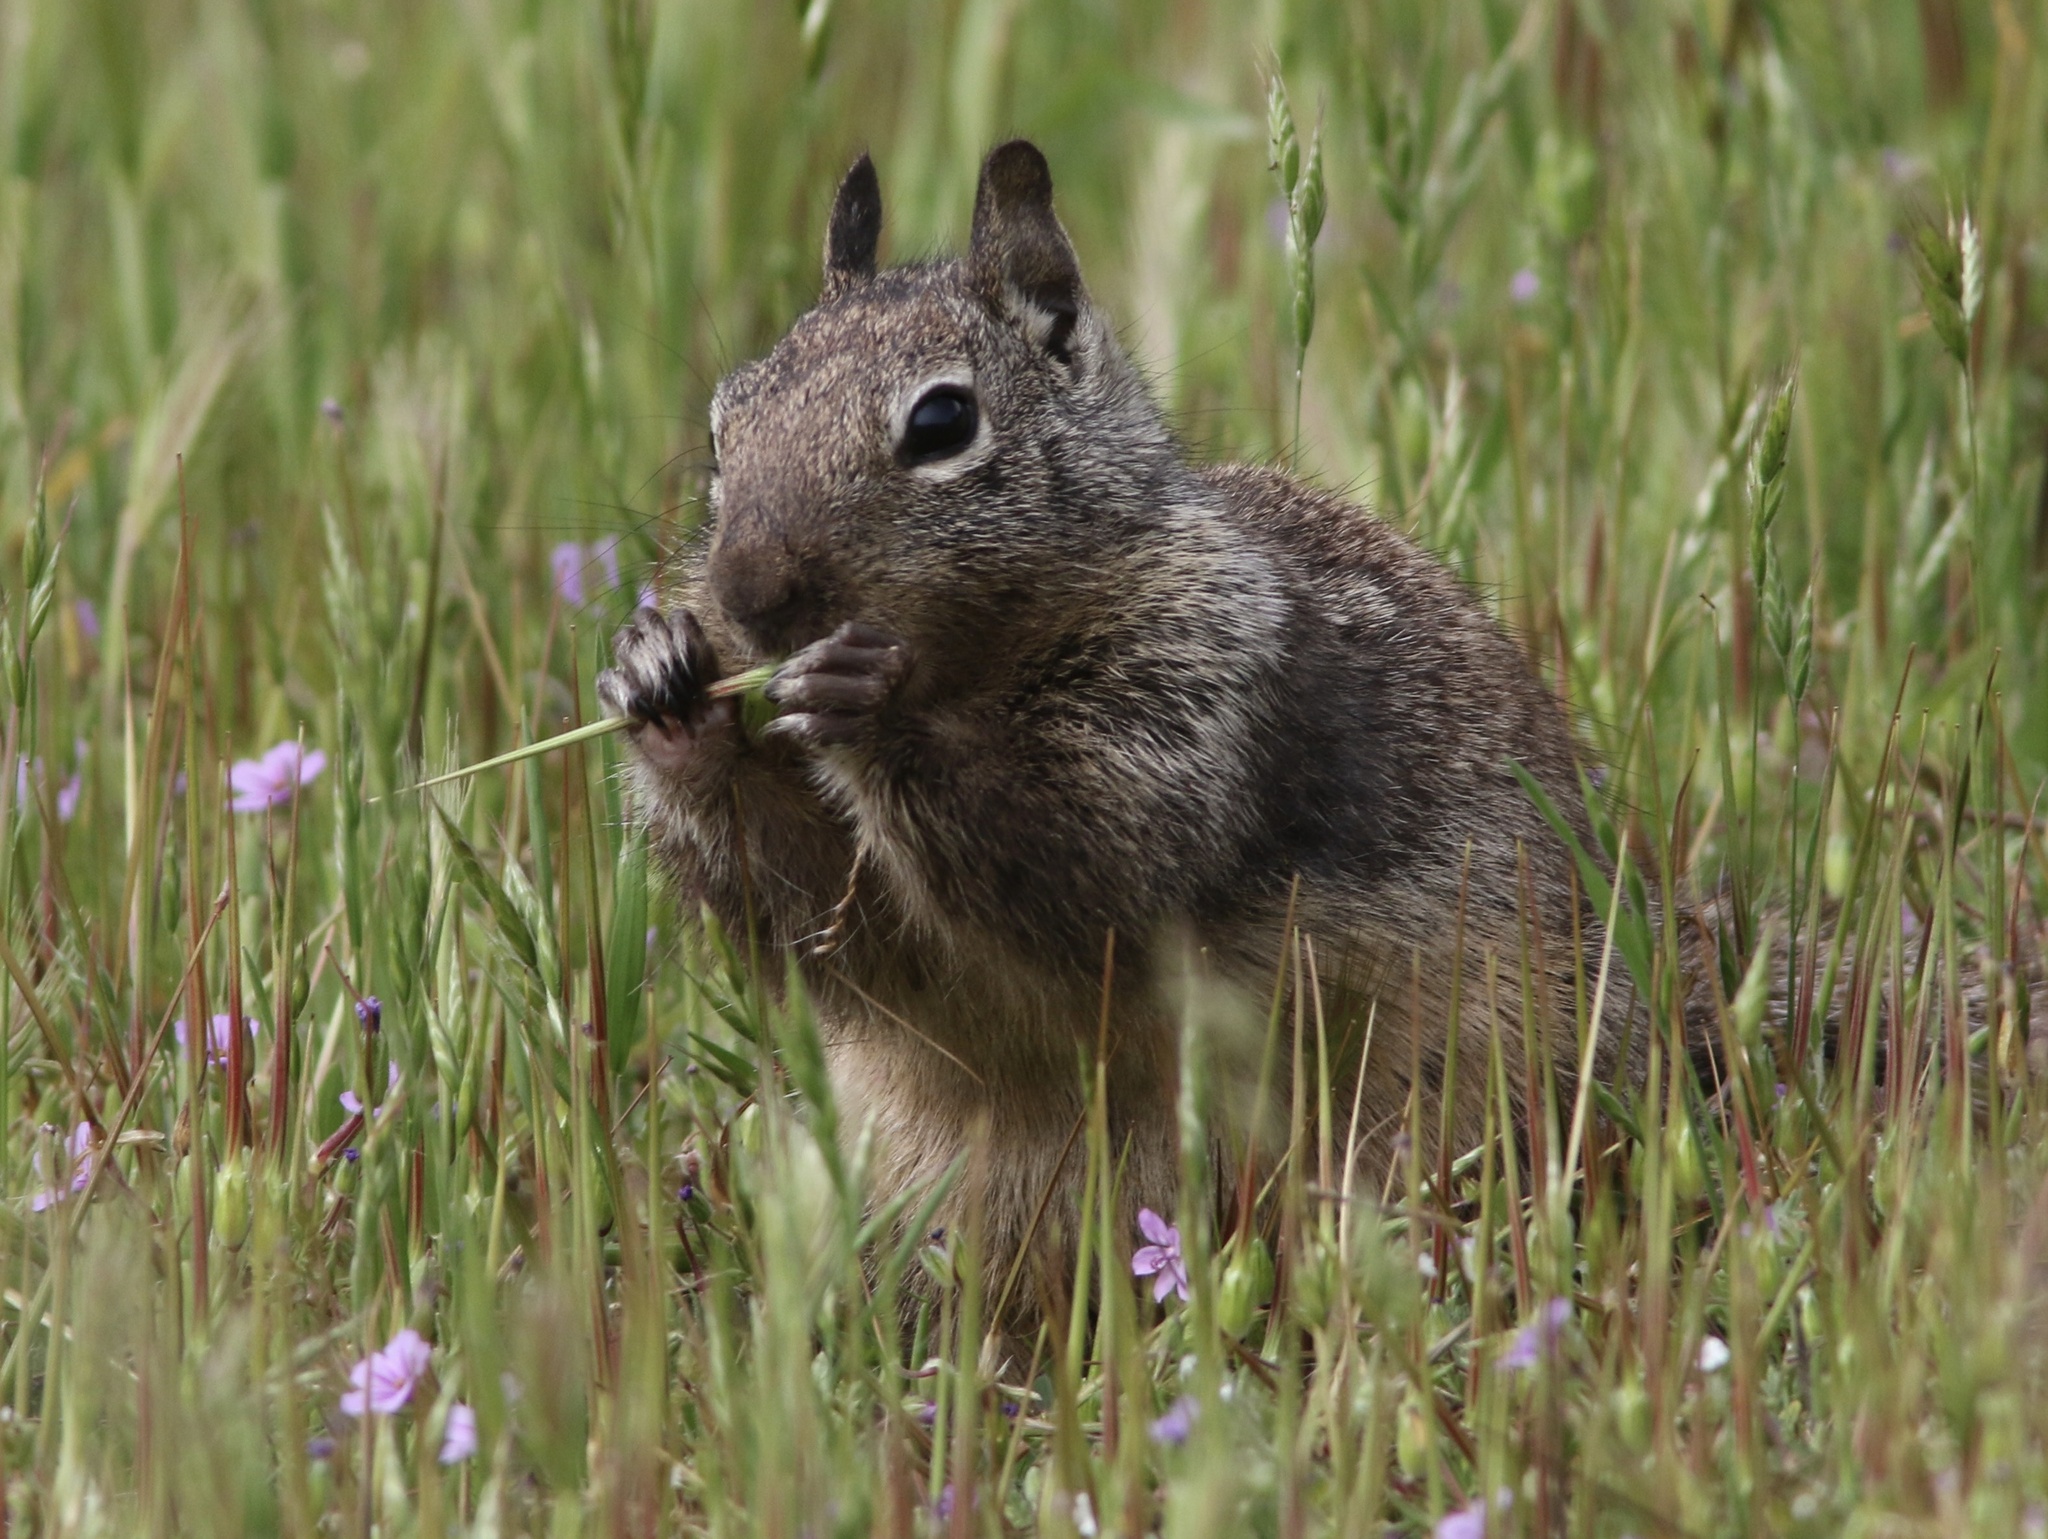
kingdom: Animalia
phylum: Chordata
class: Mammalia
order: Rodentia
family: Sciuridae
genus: Otospermophilus
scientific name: Otospermophilus beecheyi
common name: California ground squirrel
